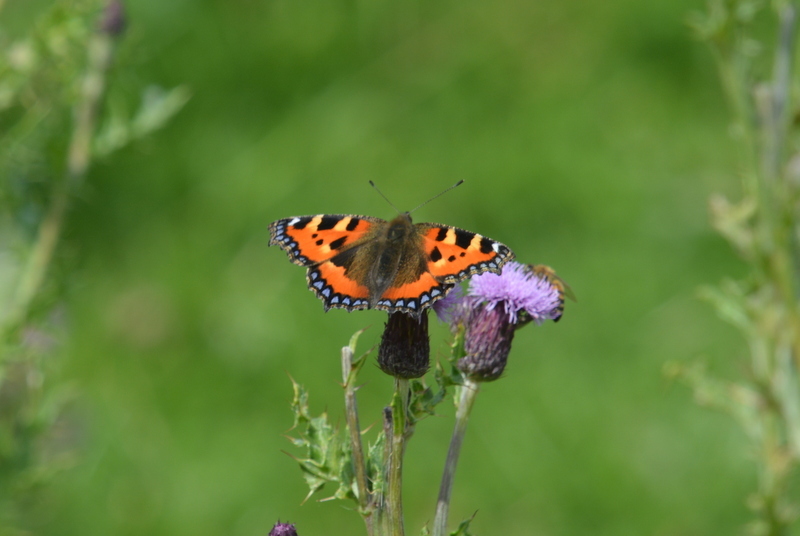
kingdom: Animalia
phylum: Arthropoda
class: Insecta
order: Lepidoptera
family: Nymphalidae
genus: Aglais
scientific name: Aglais urticae
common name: Small tortoiseshell
